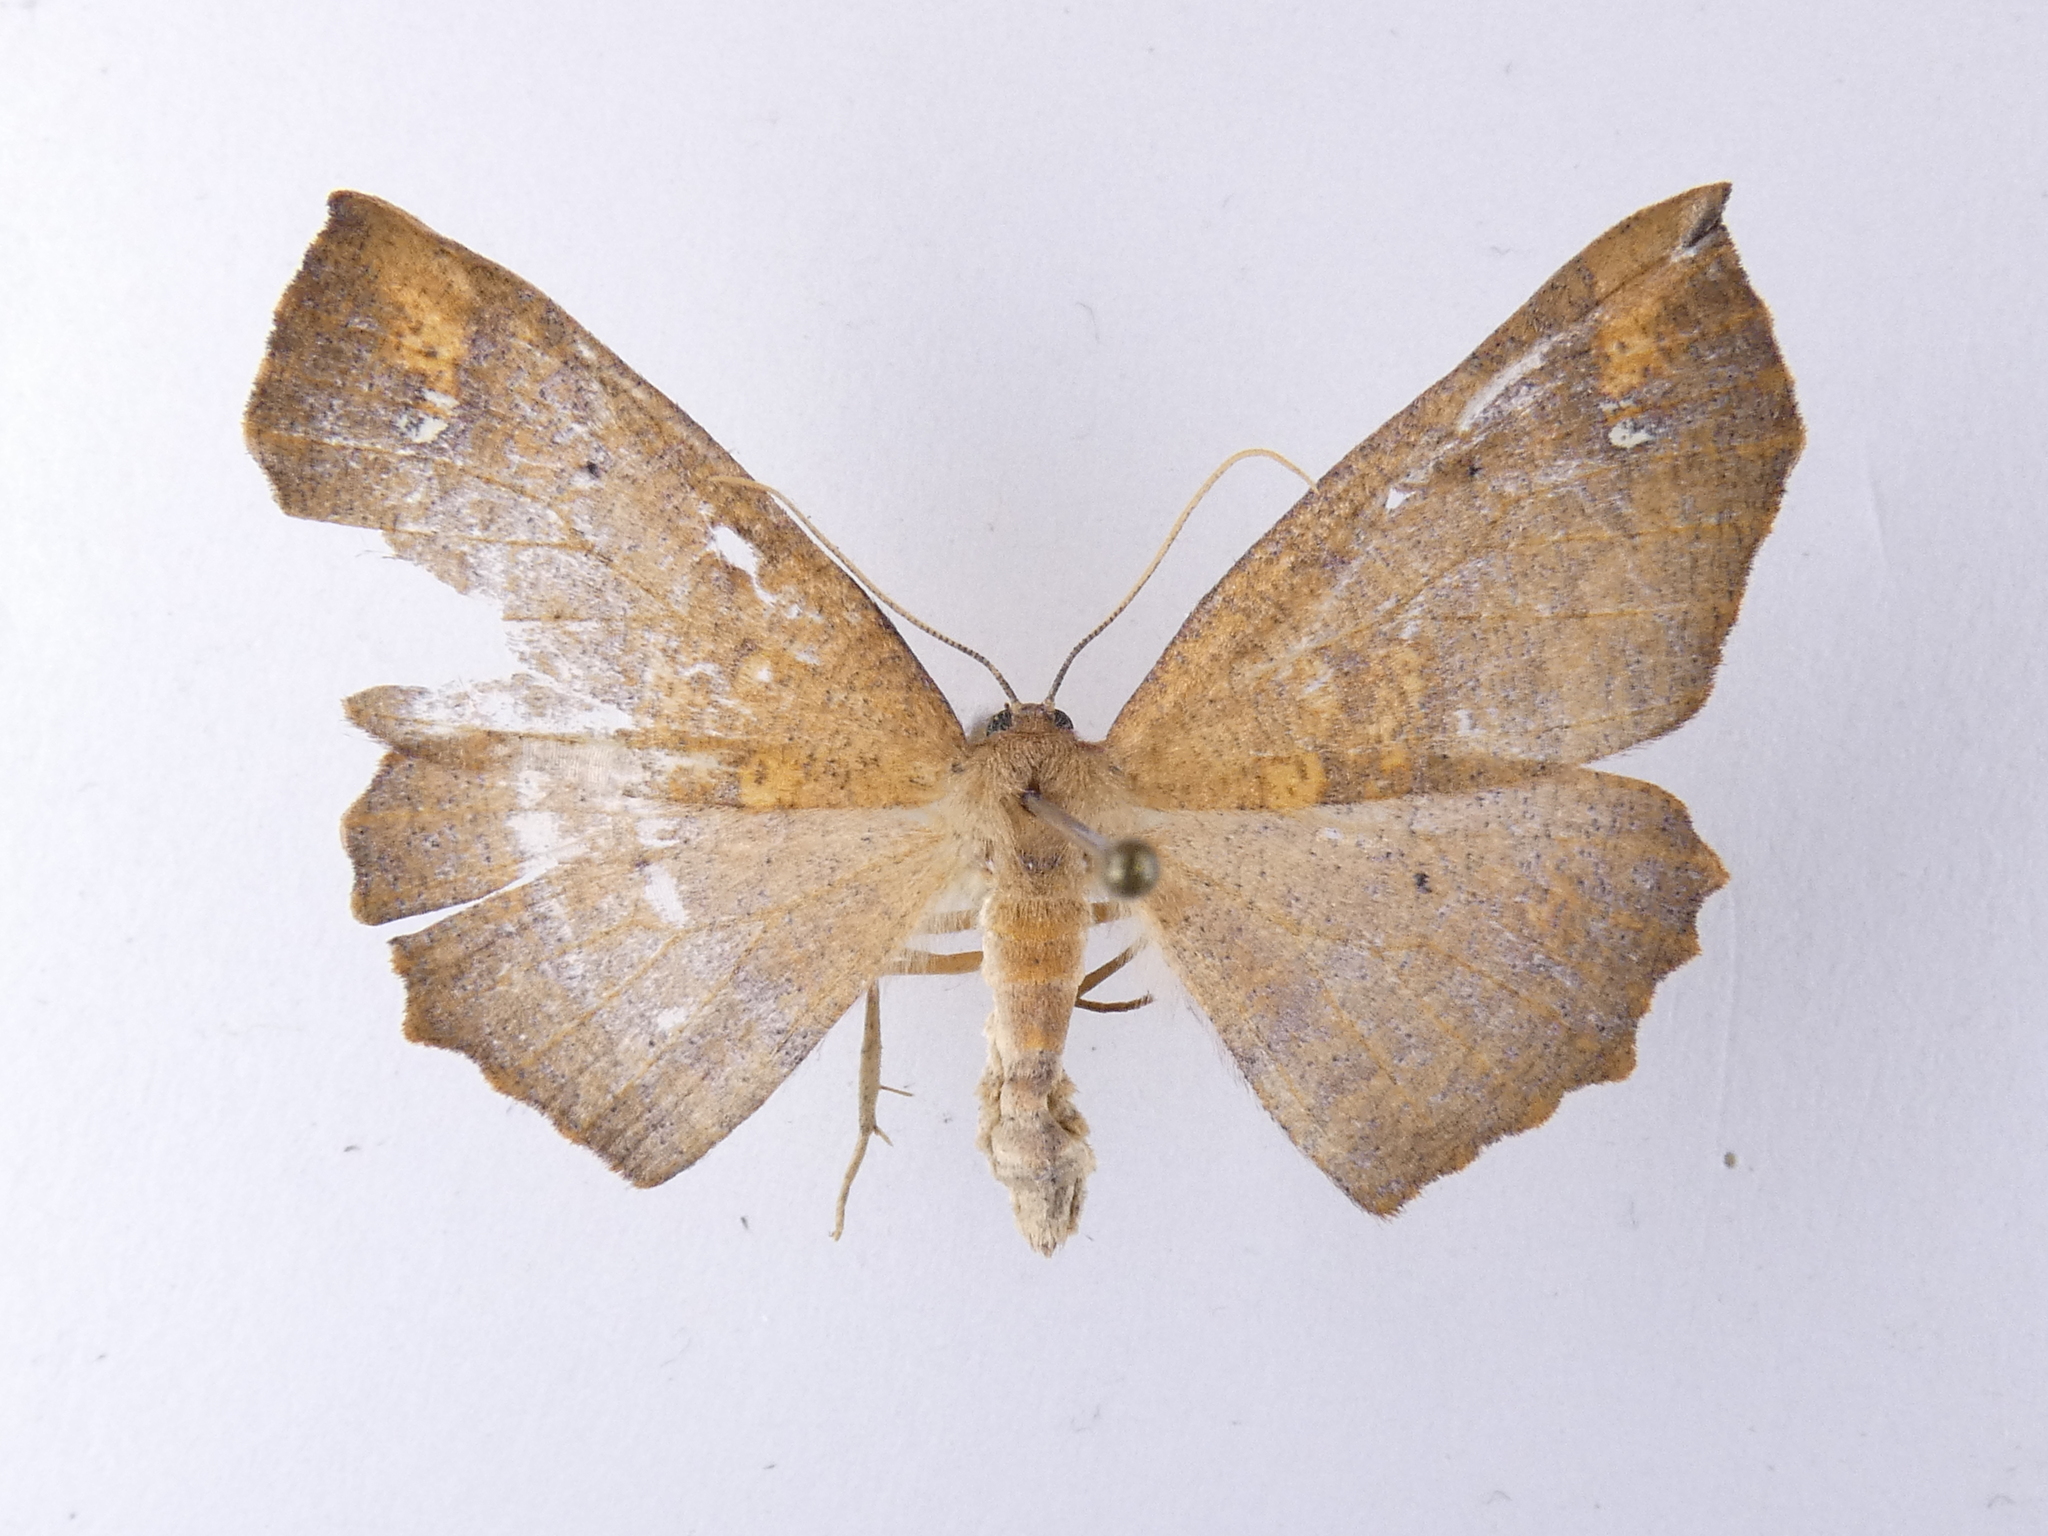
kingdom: Animalia
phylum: Arthropoda
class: Insecta
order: Lepidoptera
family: Geometridae
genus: Xyridacma
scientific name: Xyridacma ustaria
